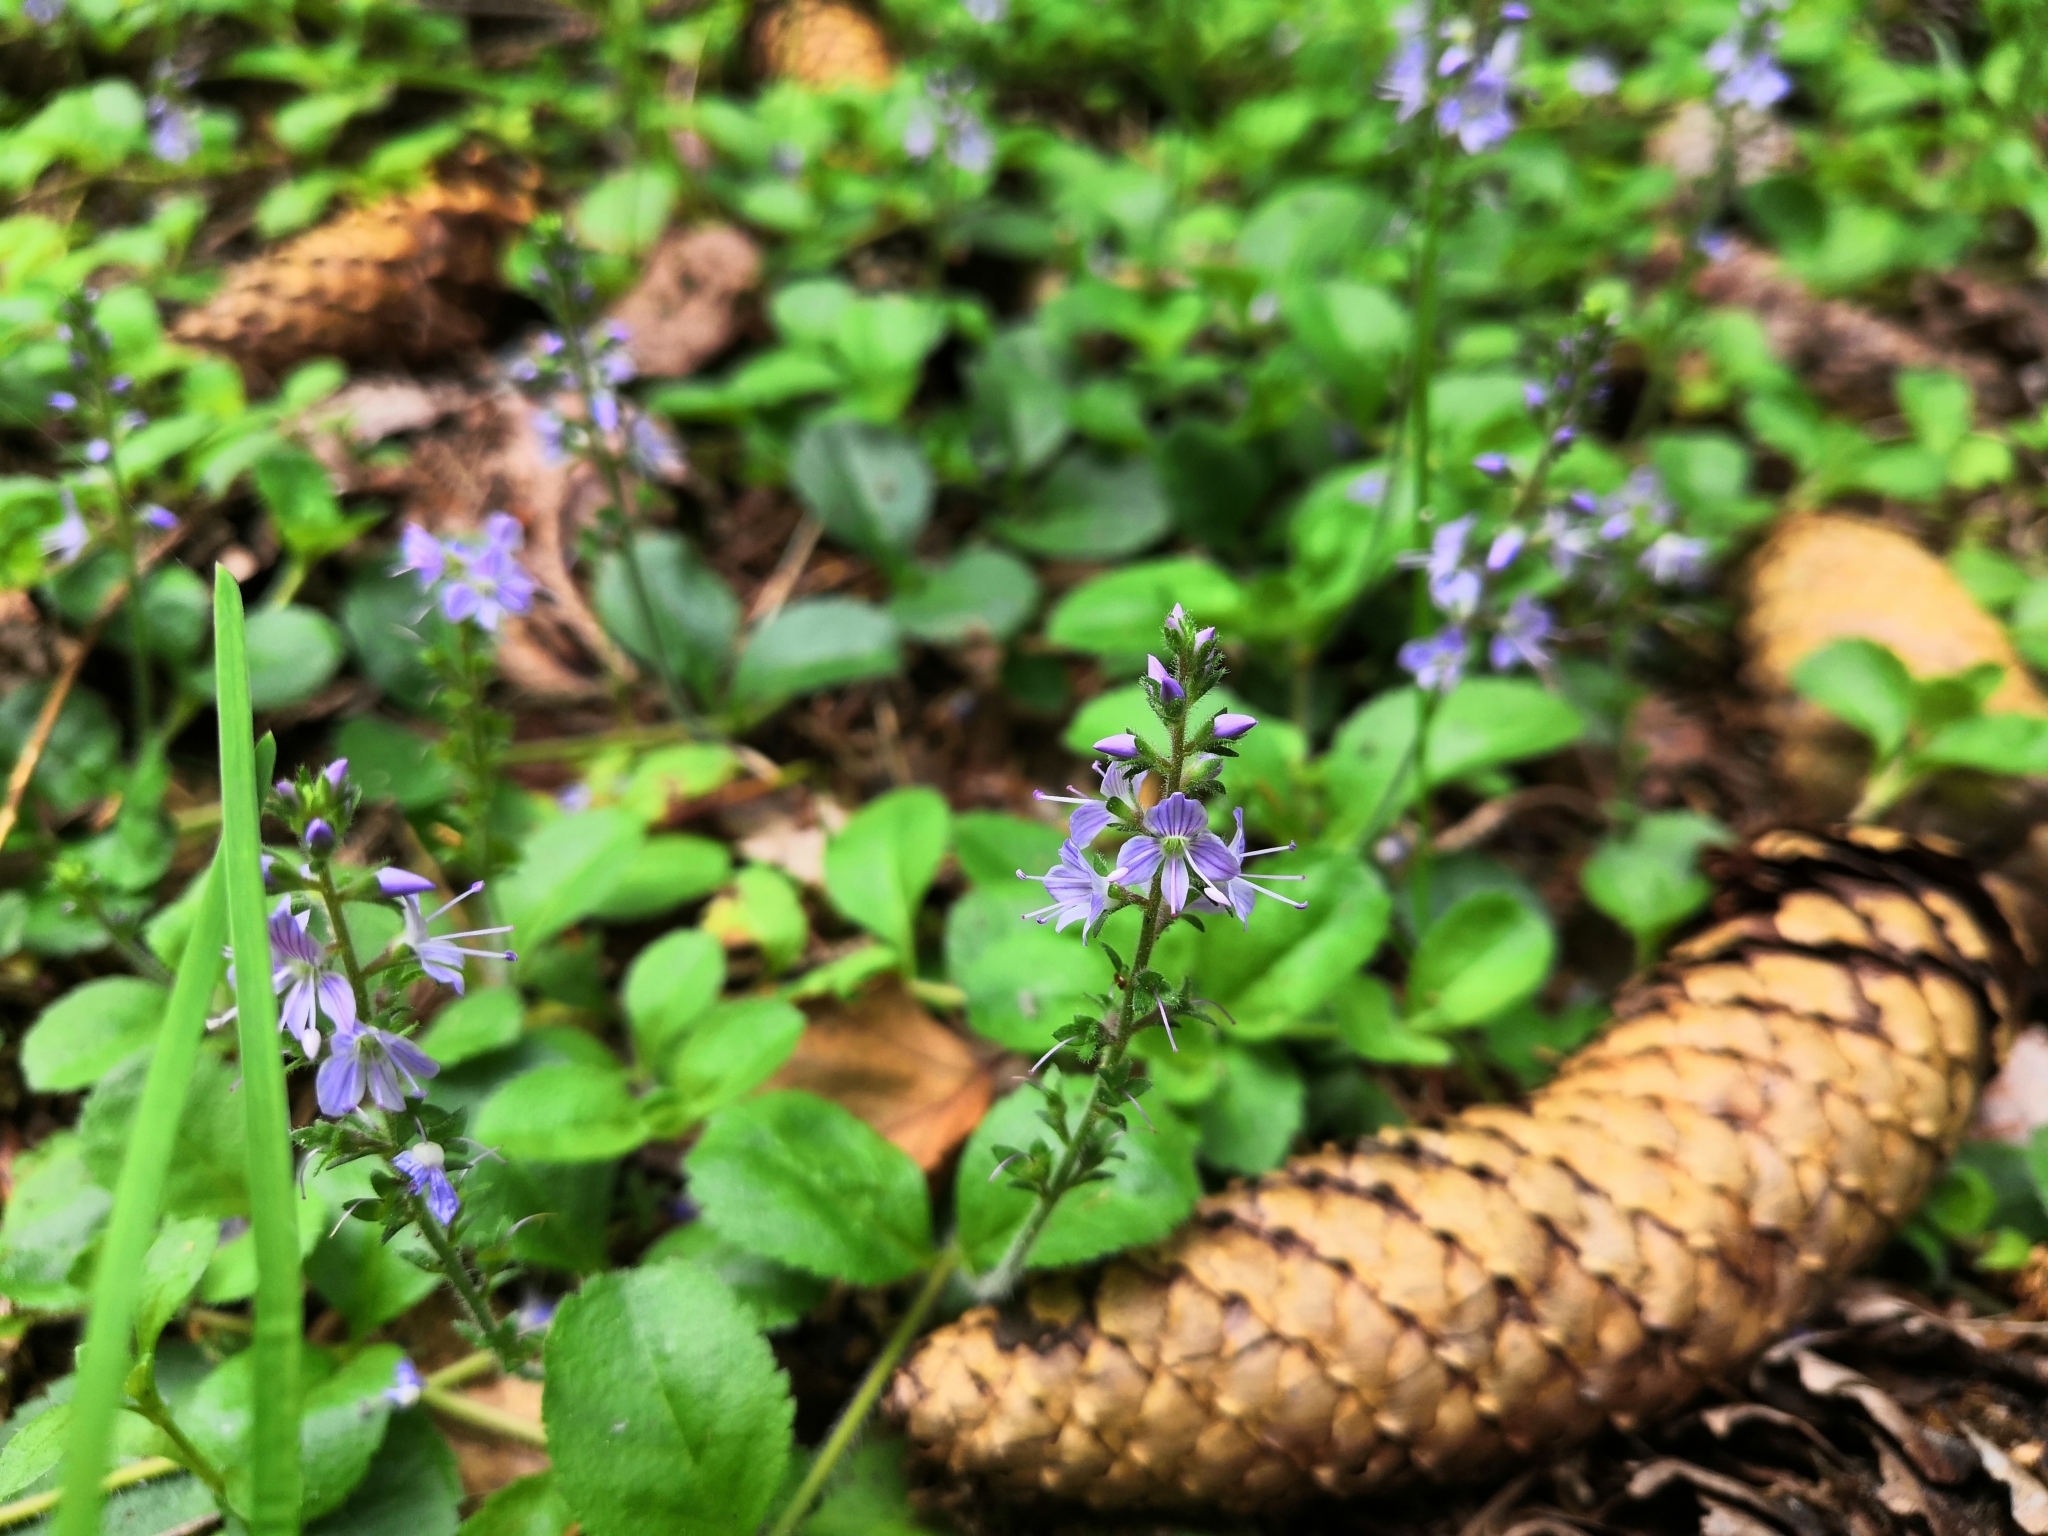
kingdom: Plantae
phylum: Tracheophyta
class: Magnoliopsida
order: Lamiales
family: Plantaginaceae
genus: Veronica
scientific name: Veronica officinalis
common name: Common speedwell
